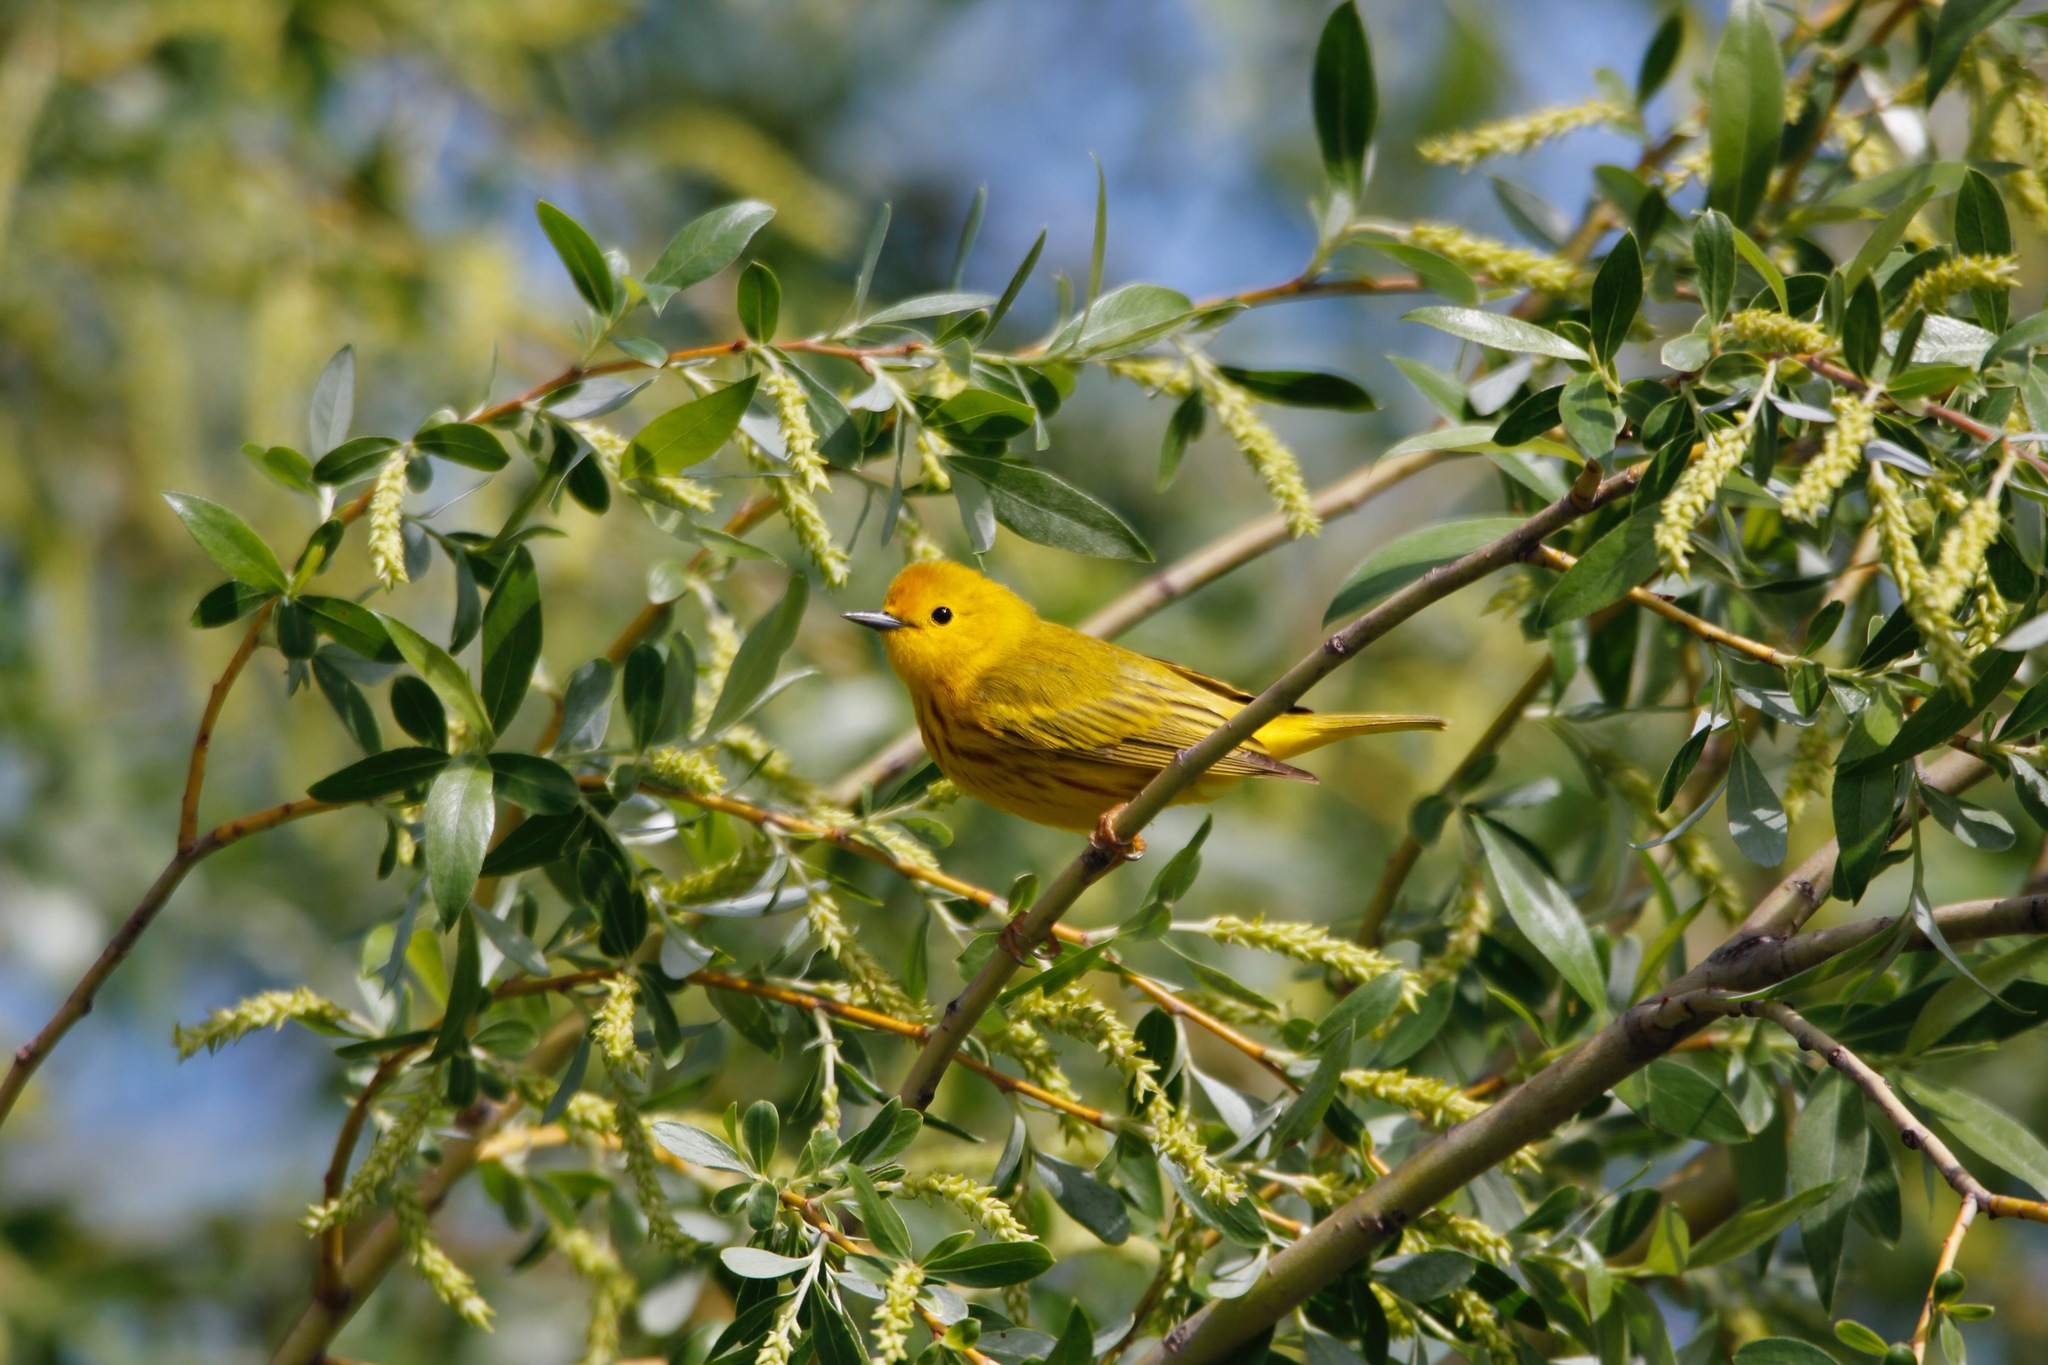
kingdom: Animalia
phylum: Chordata
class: Aves
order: Passeriformes
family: Parulidae
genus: Setophaga
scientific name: Setophaga petechia
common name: Yellow warbler
